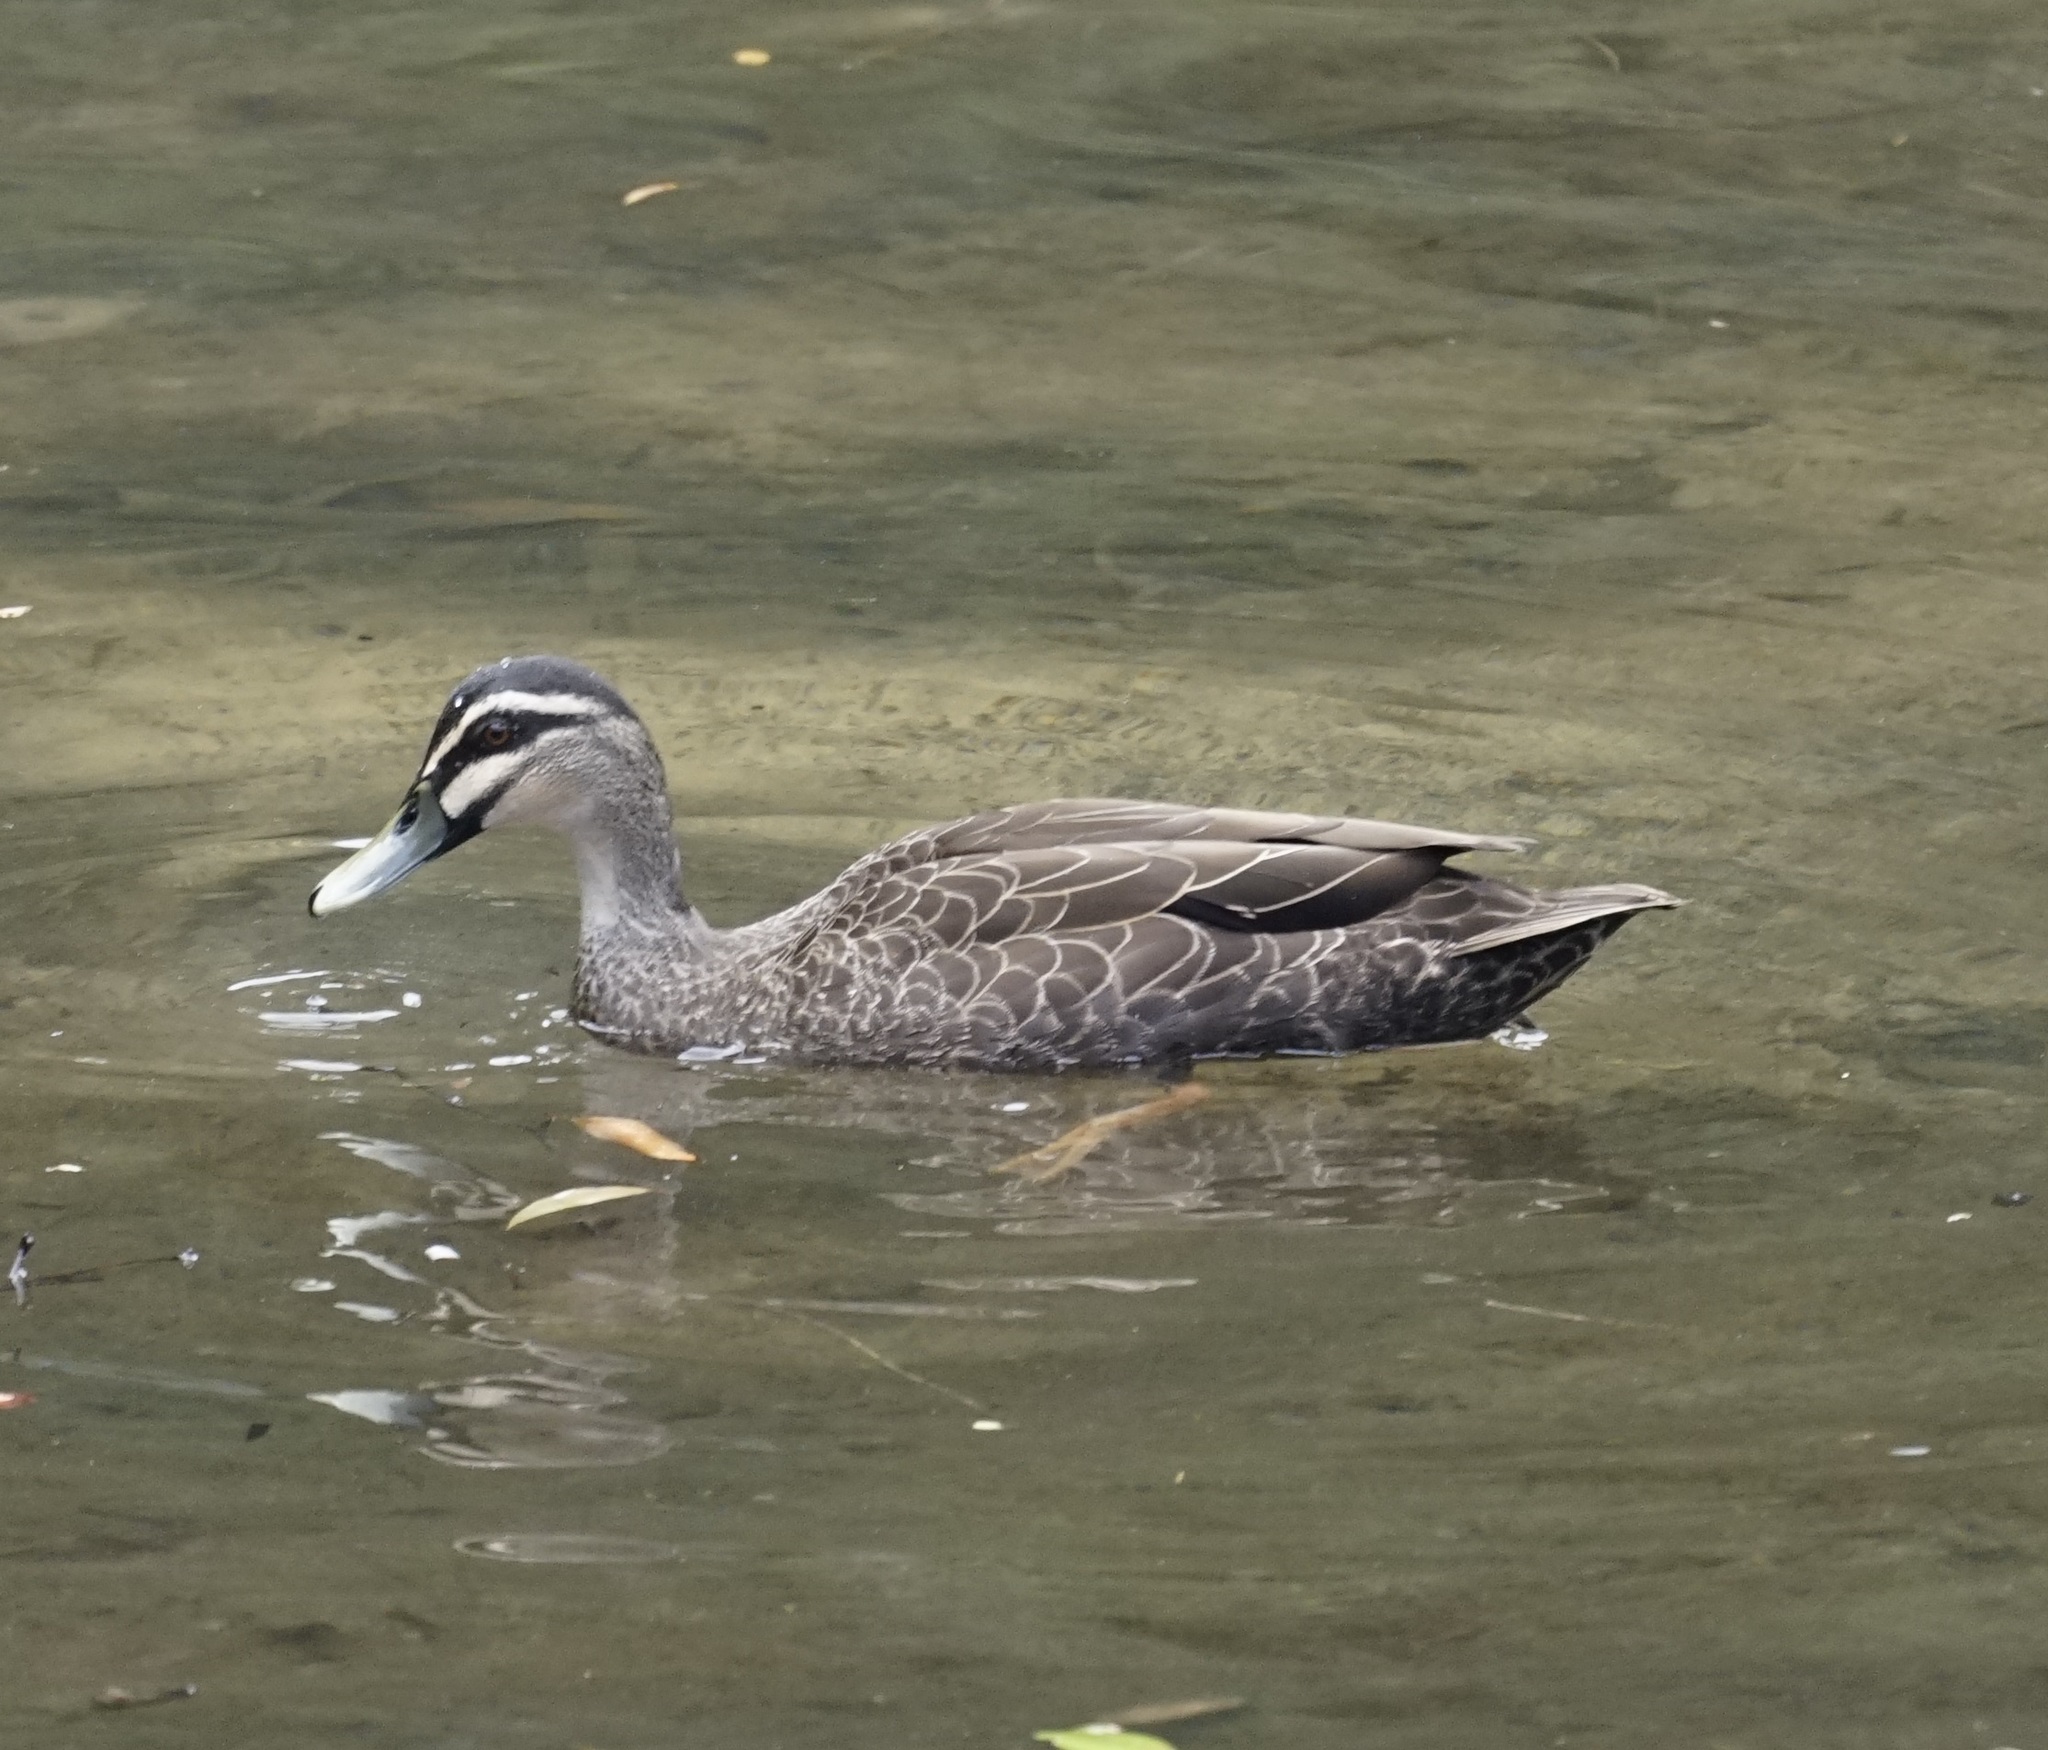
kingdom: Animalia
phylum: Chordata
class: Aves
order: Anseriformes
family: Anatidae
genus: Anas
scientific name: Anas superciliosa
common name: Pacific black duck
